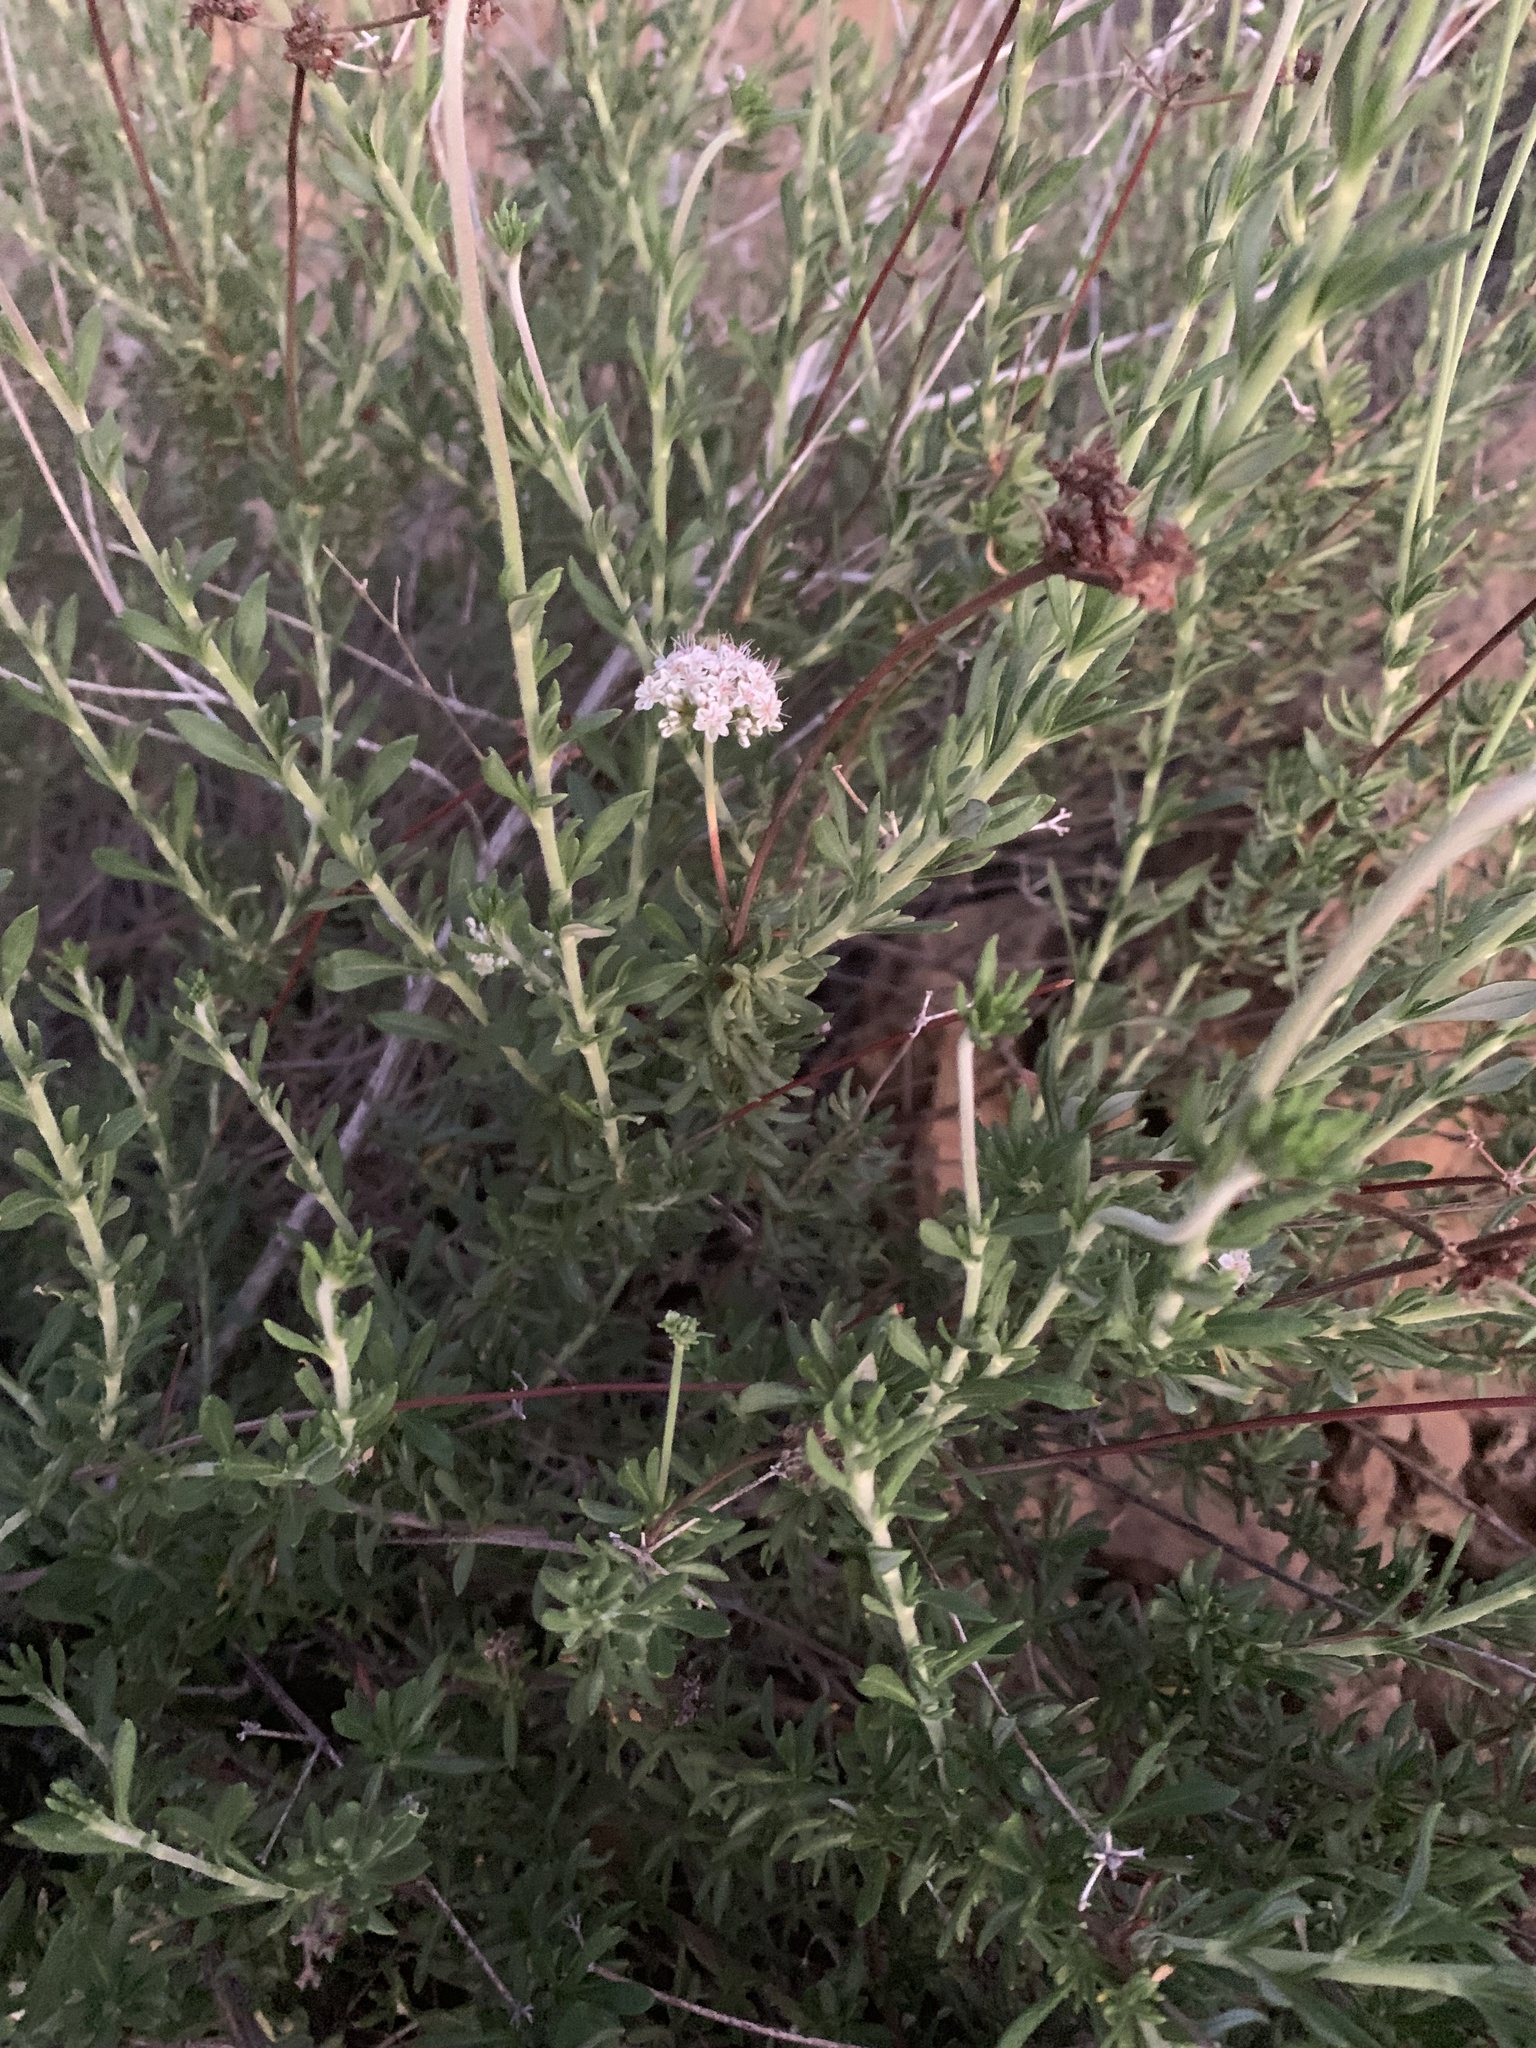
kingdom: Plantae
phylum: Tracheophyta
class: Magnoliopsida
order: Caryophyllales
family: Polygonaceae
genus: Eriogonum
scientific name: Eriogonum fasciculatum
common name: California wild buckwheat
